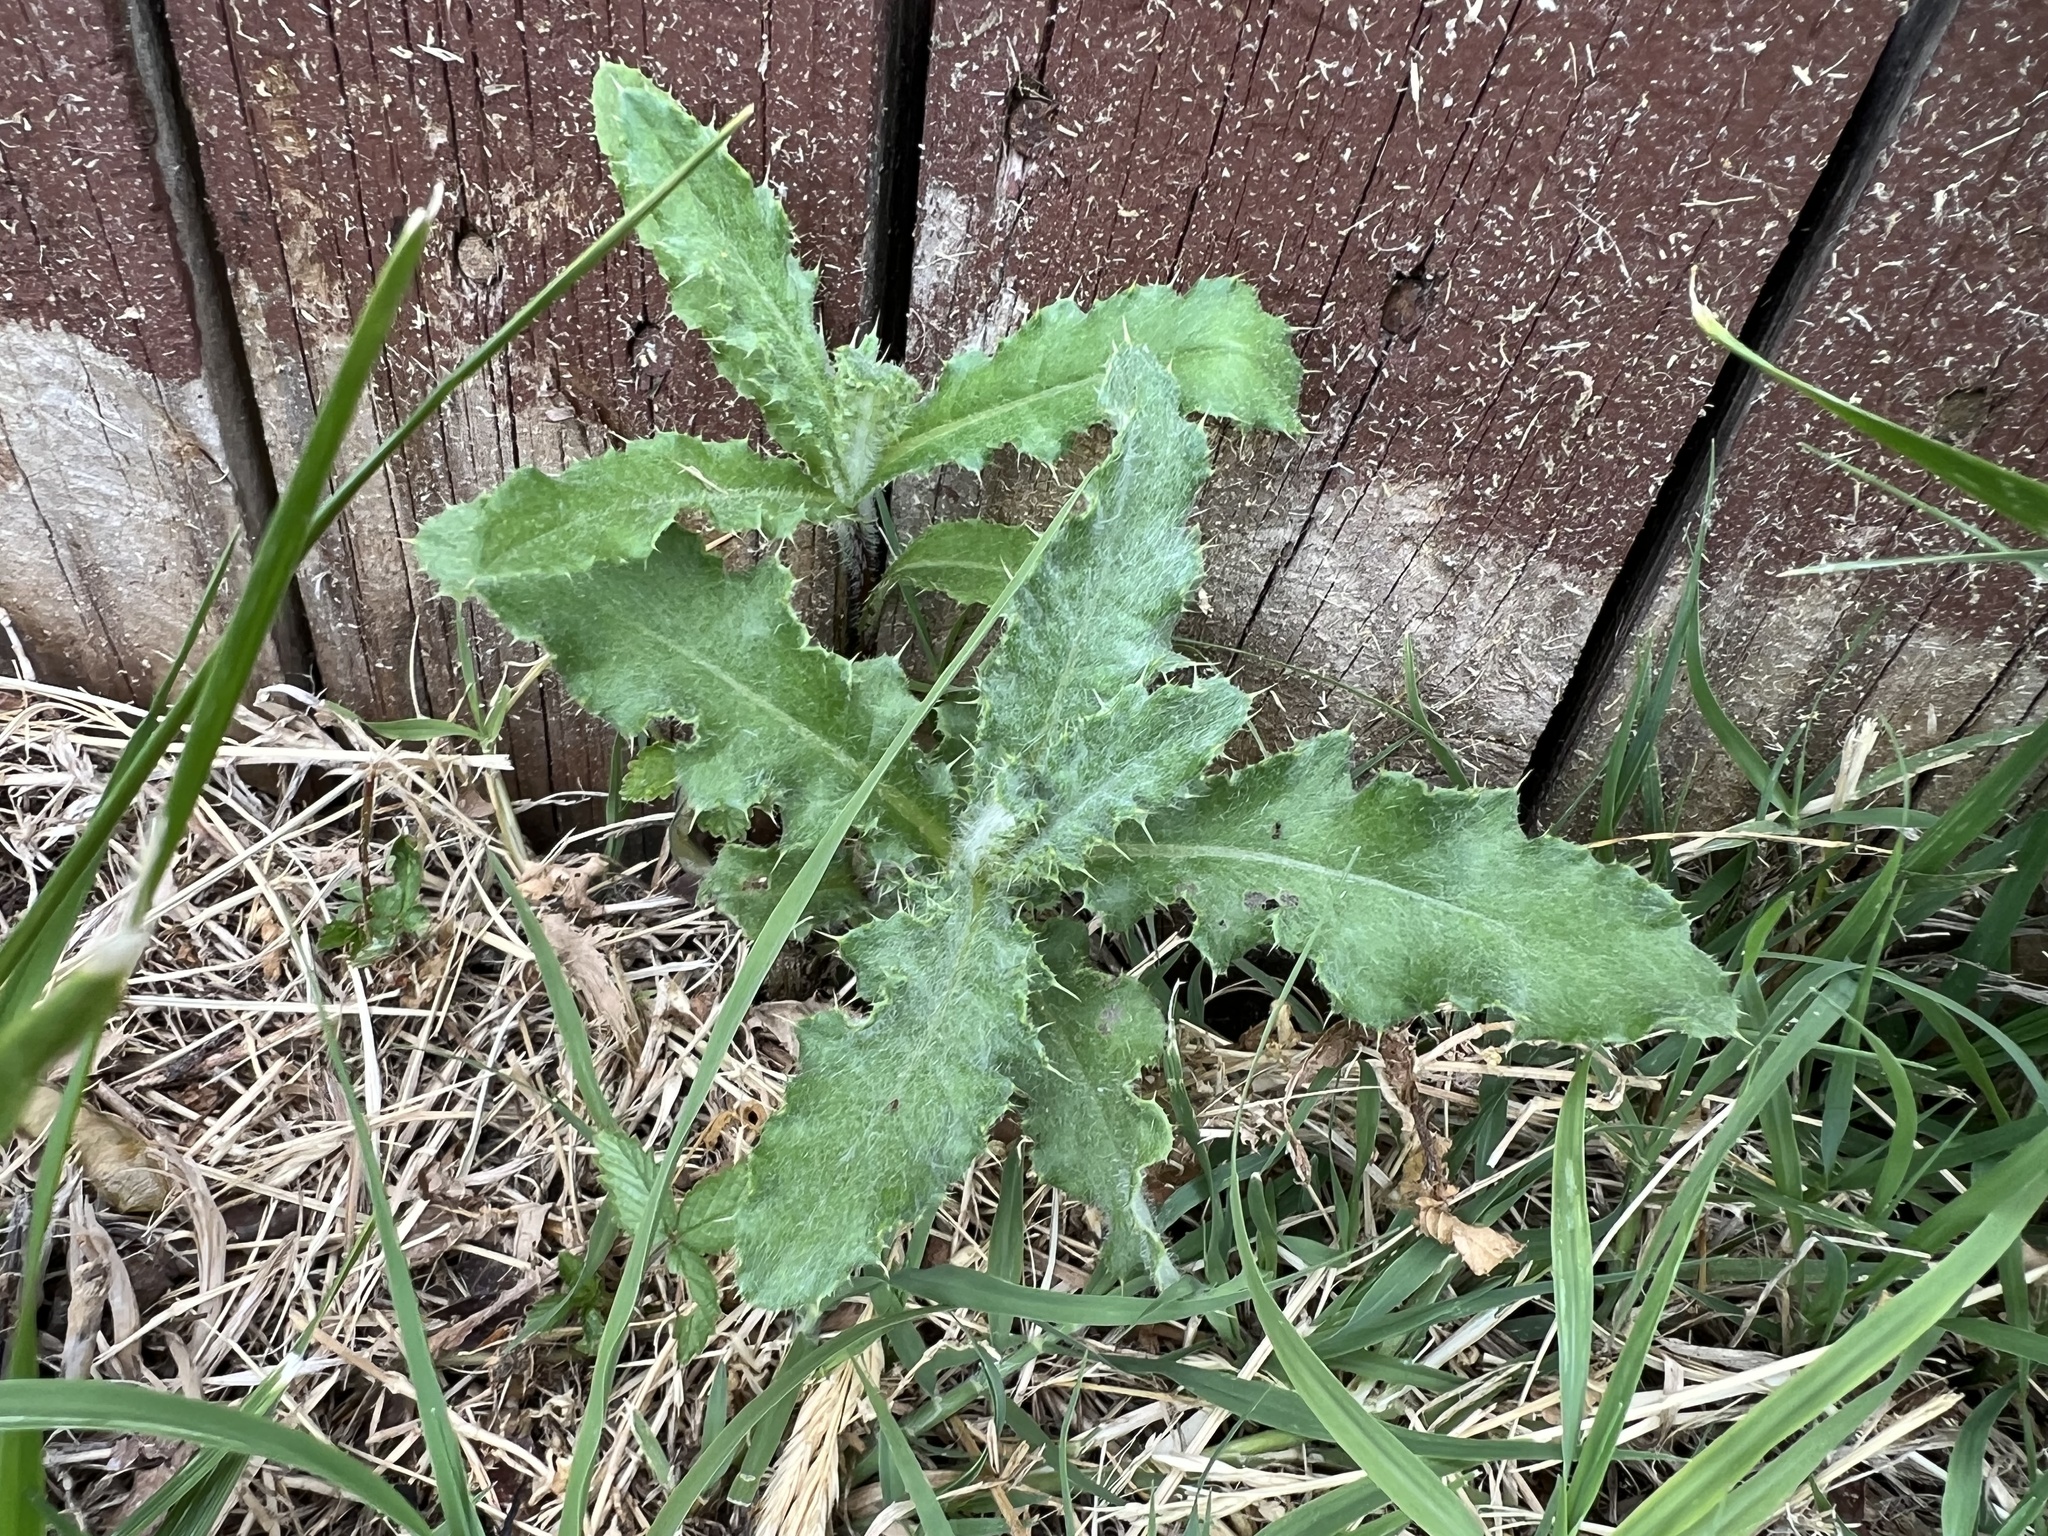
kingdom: Plantae
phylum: Tracheophyta
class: Magnoliopsida
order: Asterales
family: Asteraceae
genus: Cirsium
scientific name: Cirsium arvense
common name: Creeping thistle
